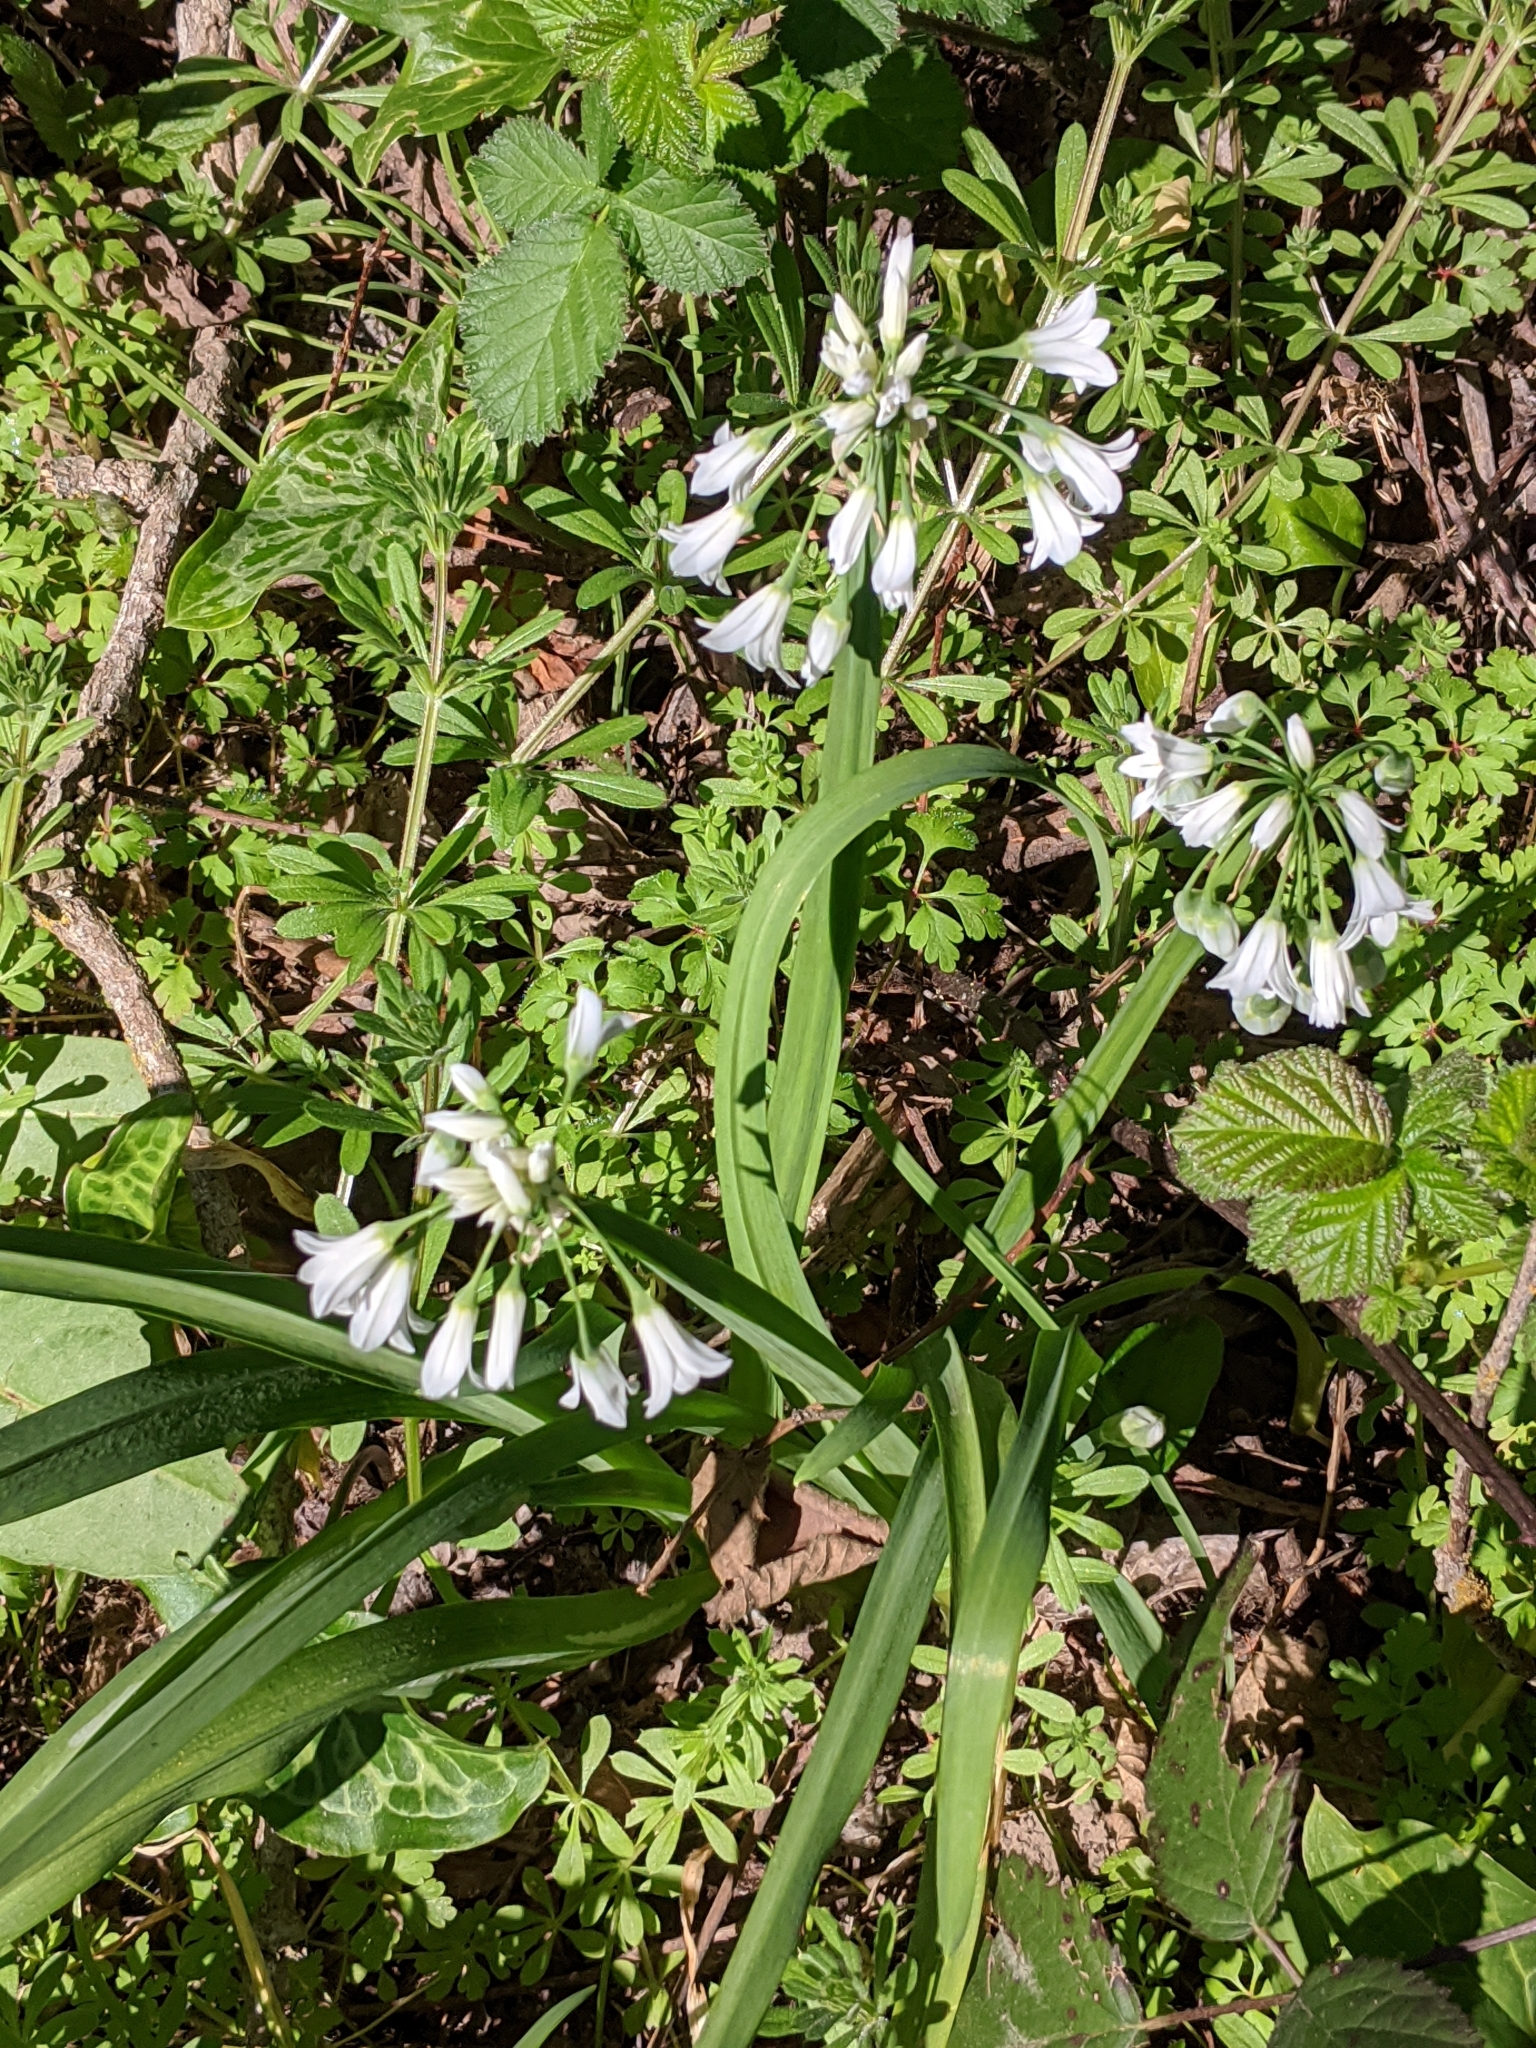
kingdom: Plantae
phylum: Tracheophyta
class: Liliopsida
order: Asparagales
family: Amaryllidaceae
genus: Allium
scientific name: Allium triquetrum
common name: Three-cornered garlic
